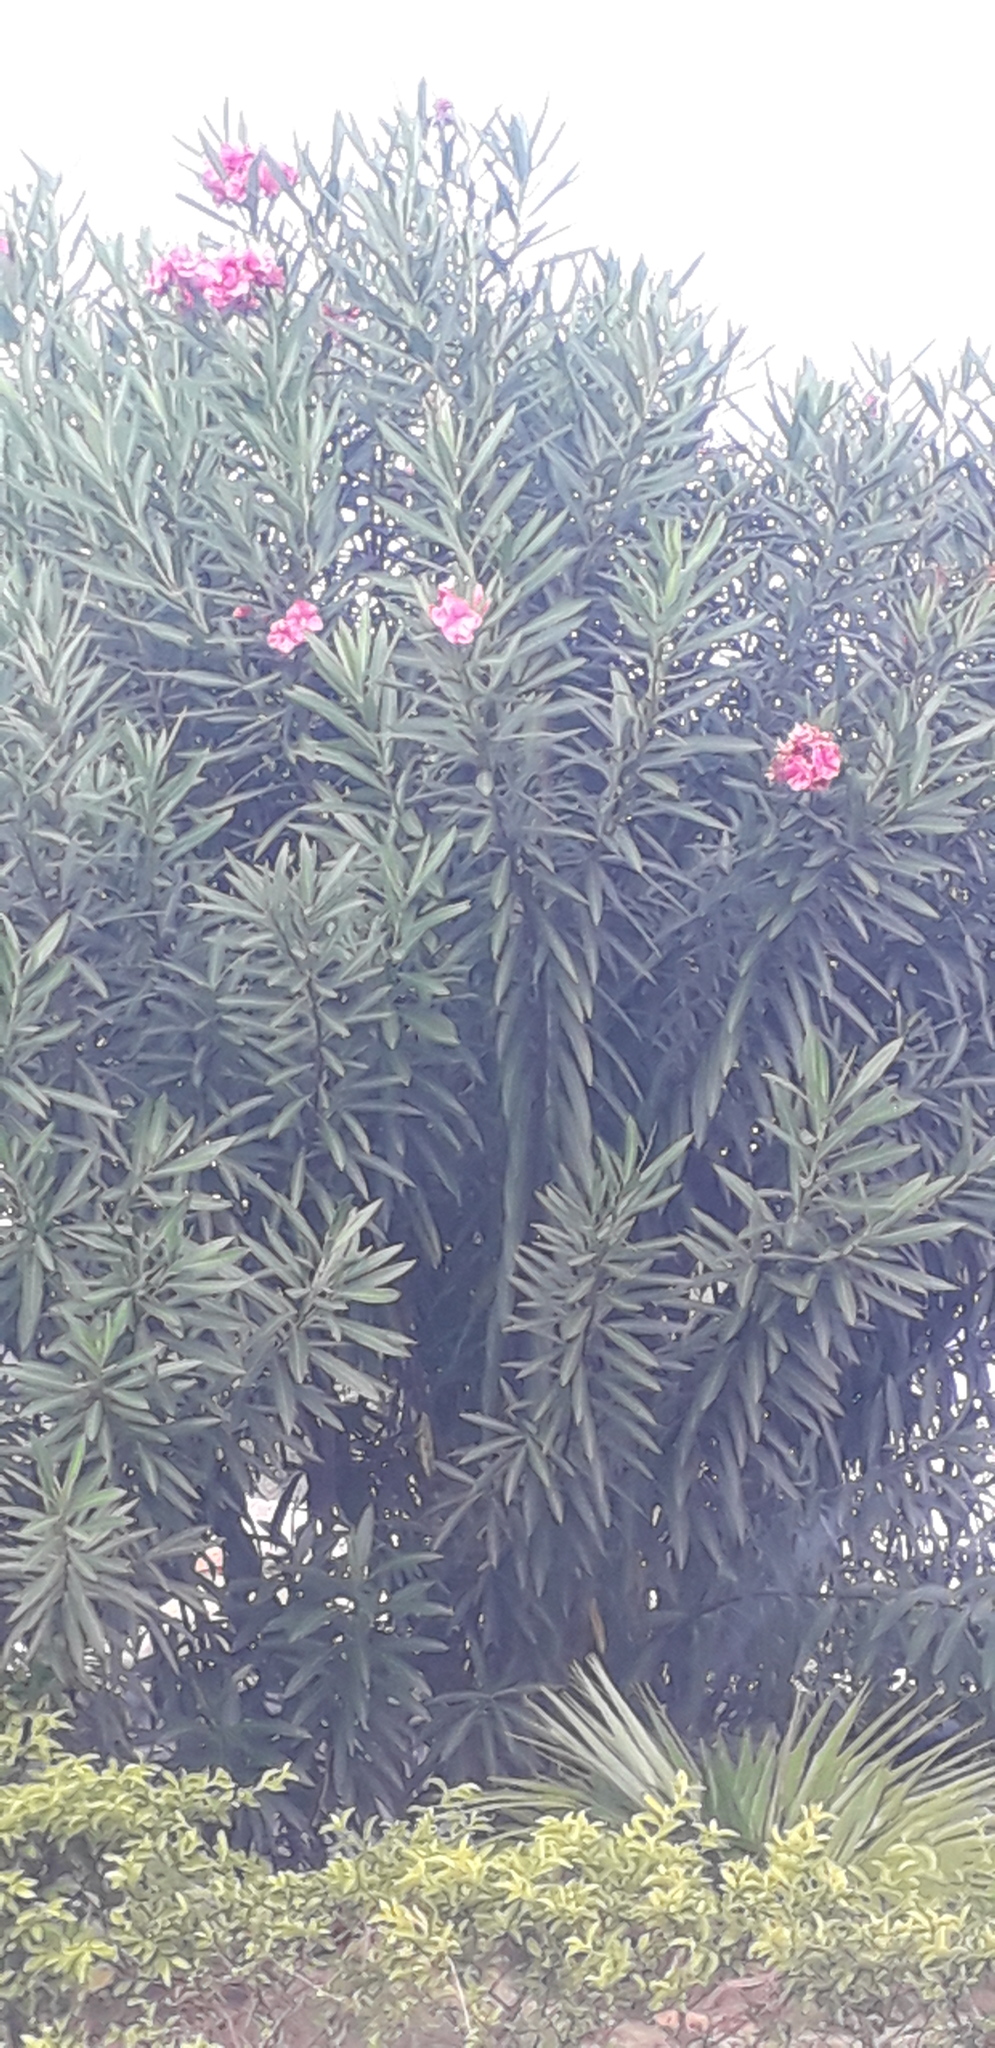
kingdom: Plantae
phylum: Tracheophyta
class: Magnoliopsida
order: Gentianales
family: Apocynaceae
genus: Nerium
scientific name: Nerium oleander
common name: Oleander
